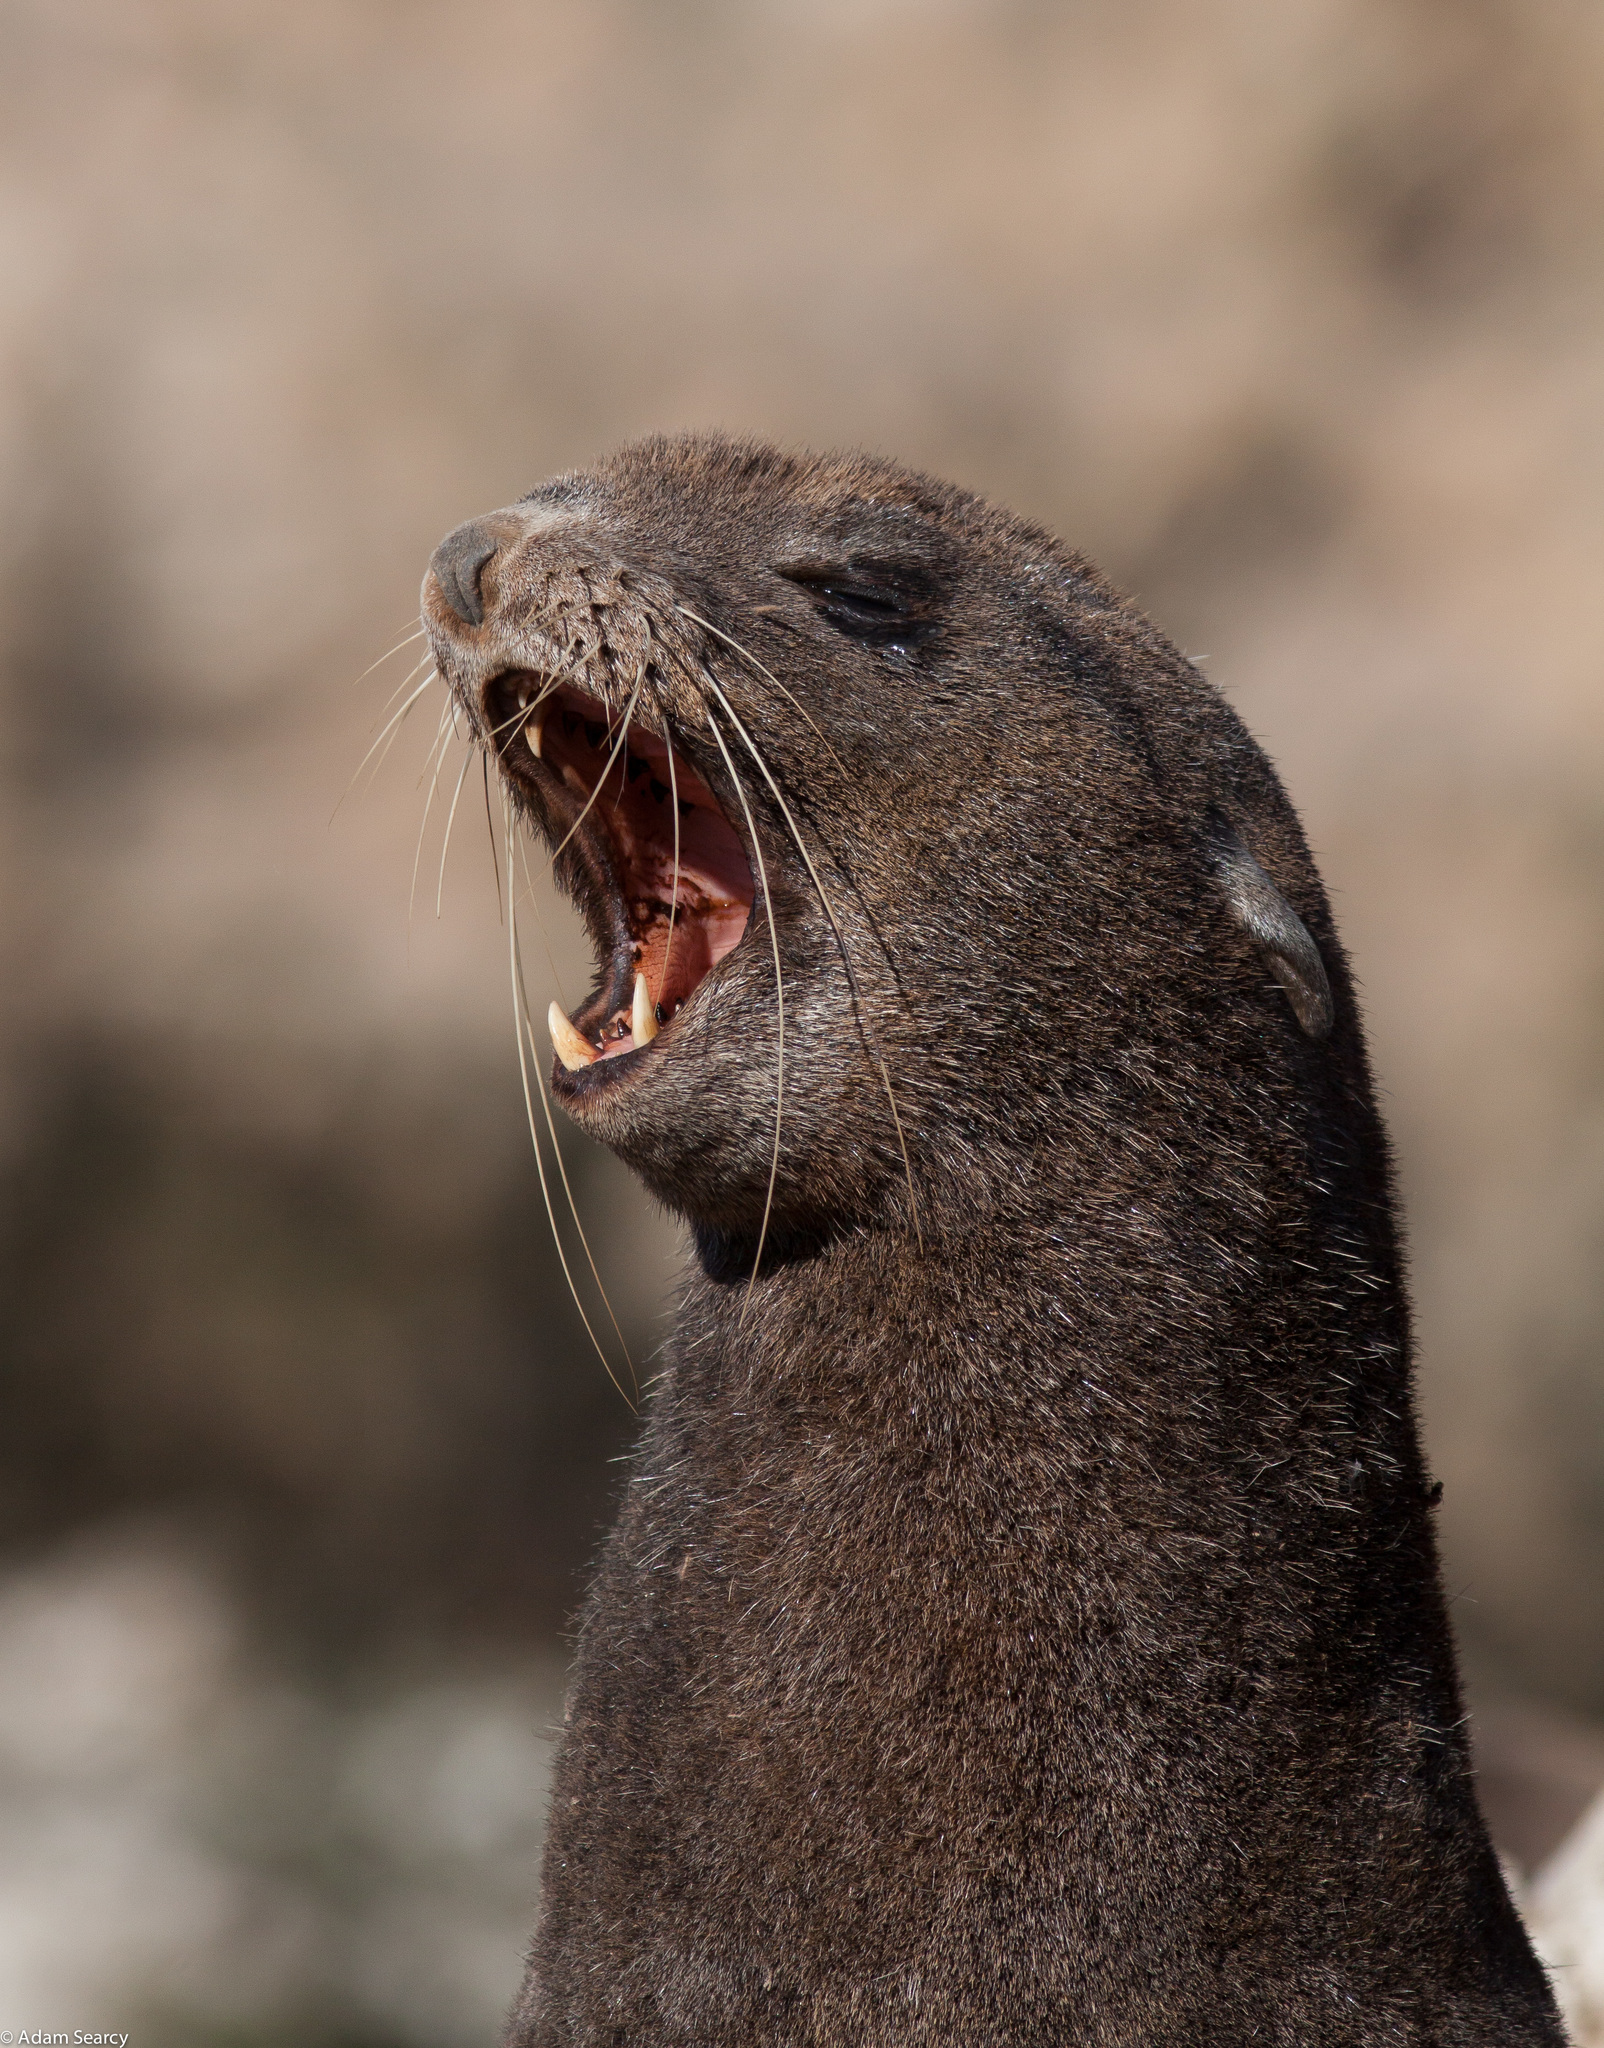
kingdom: Animalia
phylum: Chordata
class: Mammalia
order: Carnivora
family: Otariidae
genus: Callorhinus
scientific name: Callorhinus ursinus
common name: Northern fur seal
